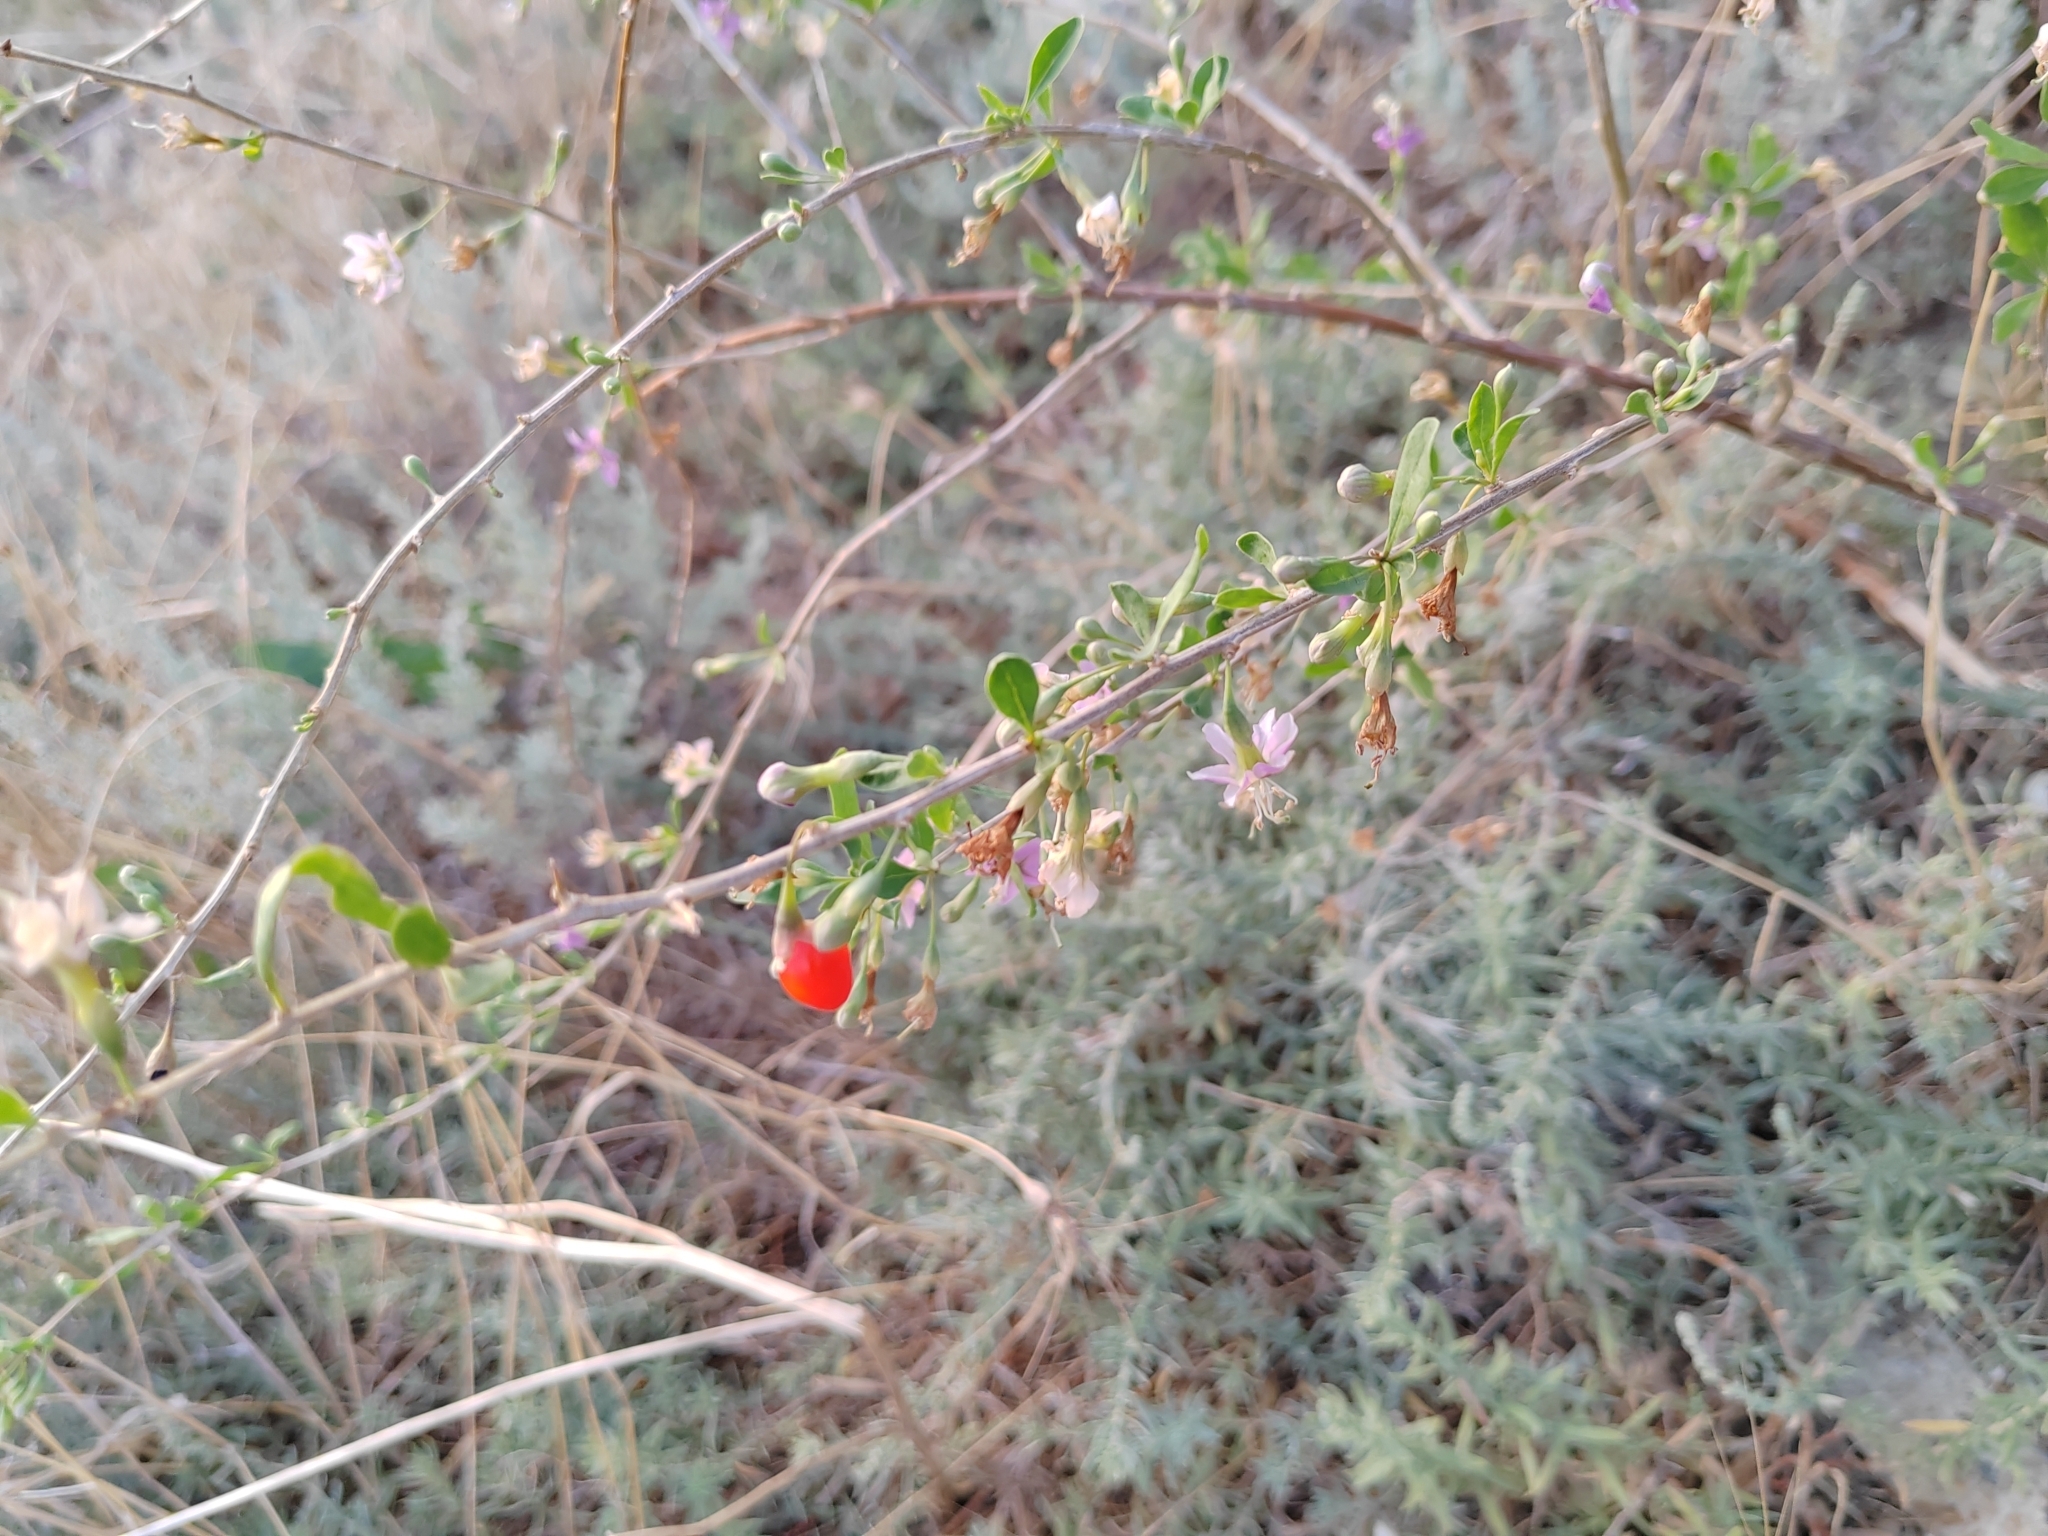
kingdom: Plantae
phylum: Tracheophyta
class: Magnoliopsida
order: Solanales
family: Solanaceae
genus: Lycium
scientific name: Lycium barbarum
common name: Duke of argyll's teaplant
